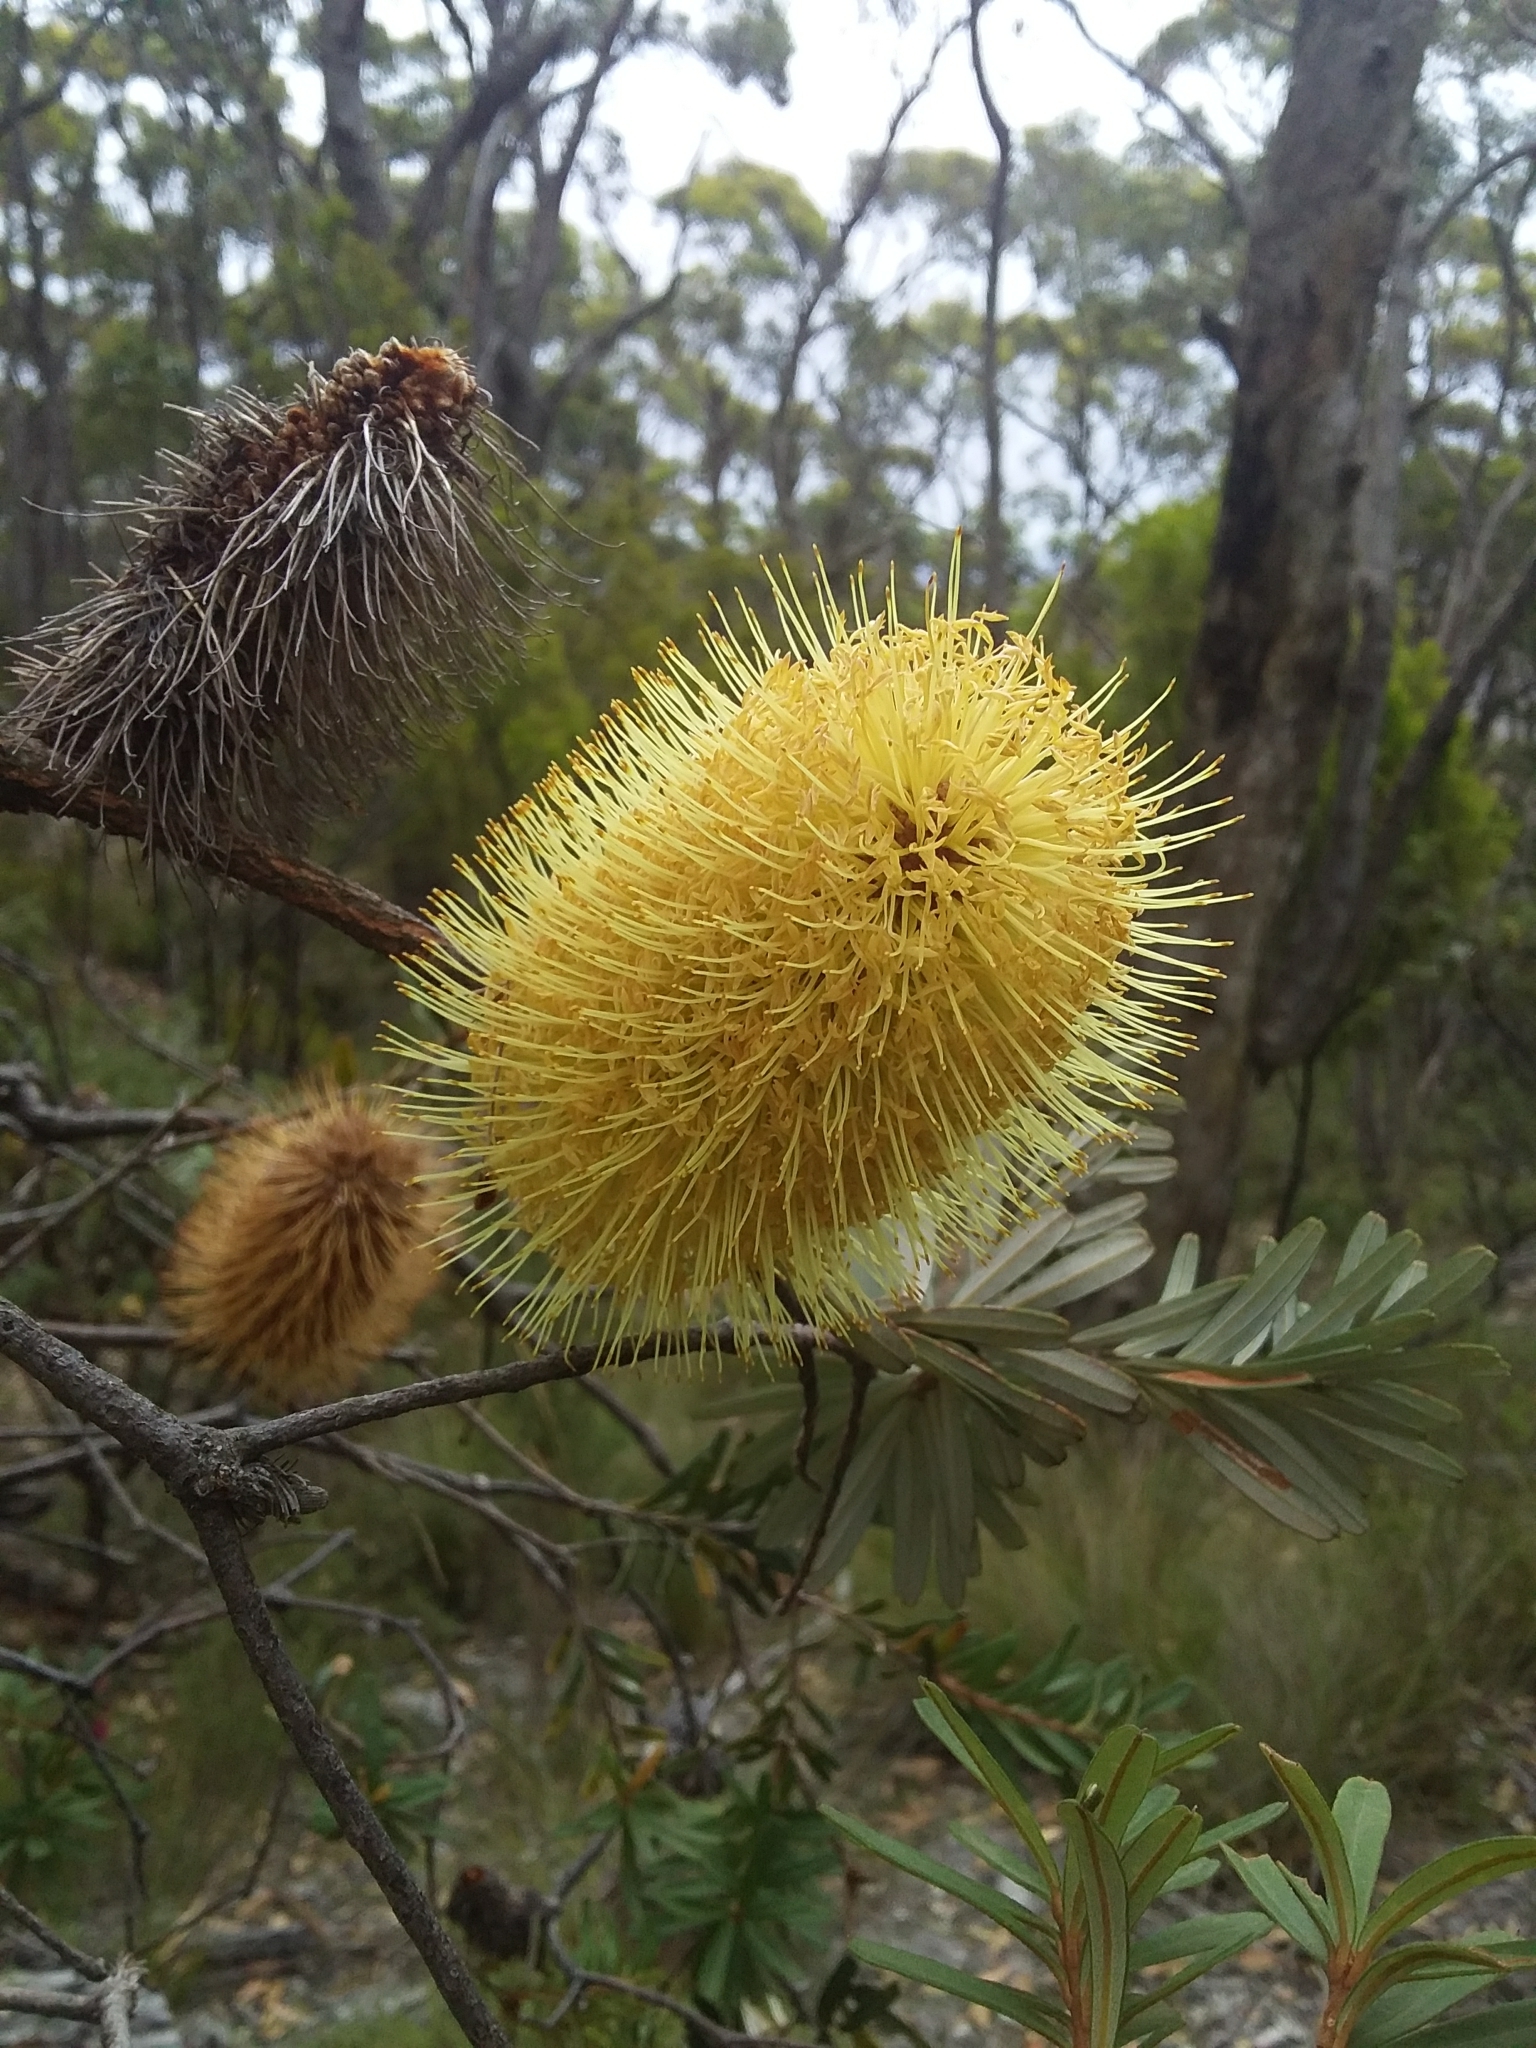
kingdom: Plantae
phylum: Tracheophyta
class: Magnoliopsida
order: Proteales
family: Proteaceae
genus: Banksia
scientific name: Banksia marginata
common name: Silver banksia
